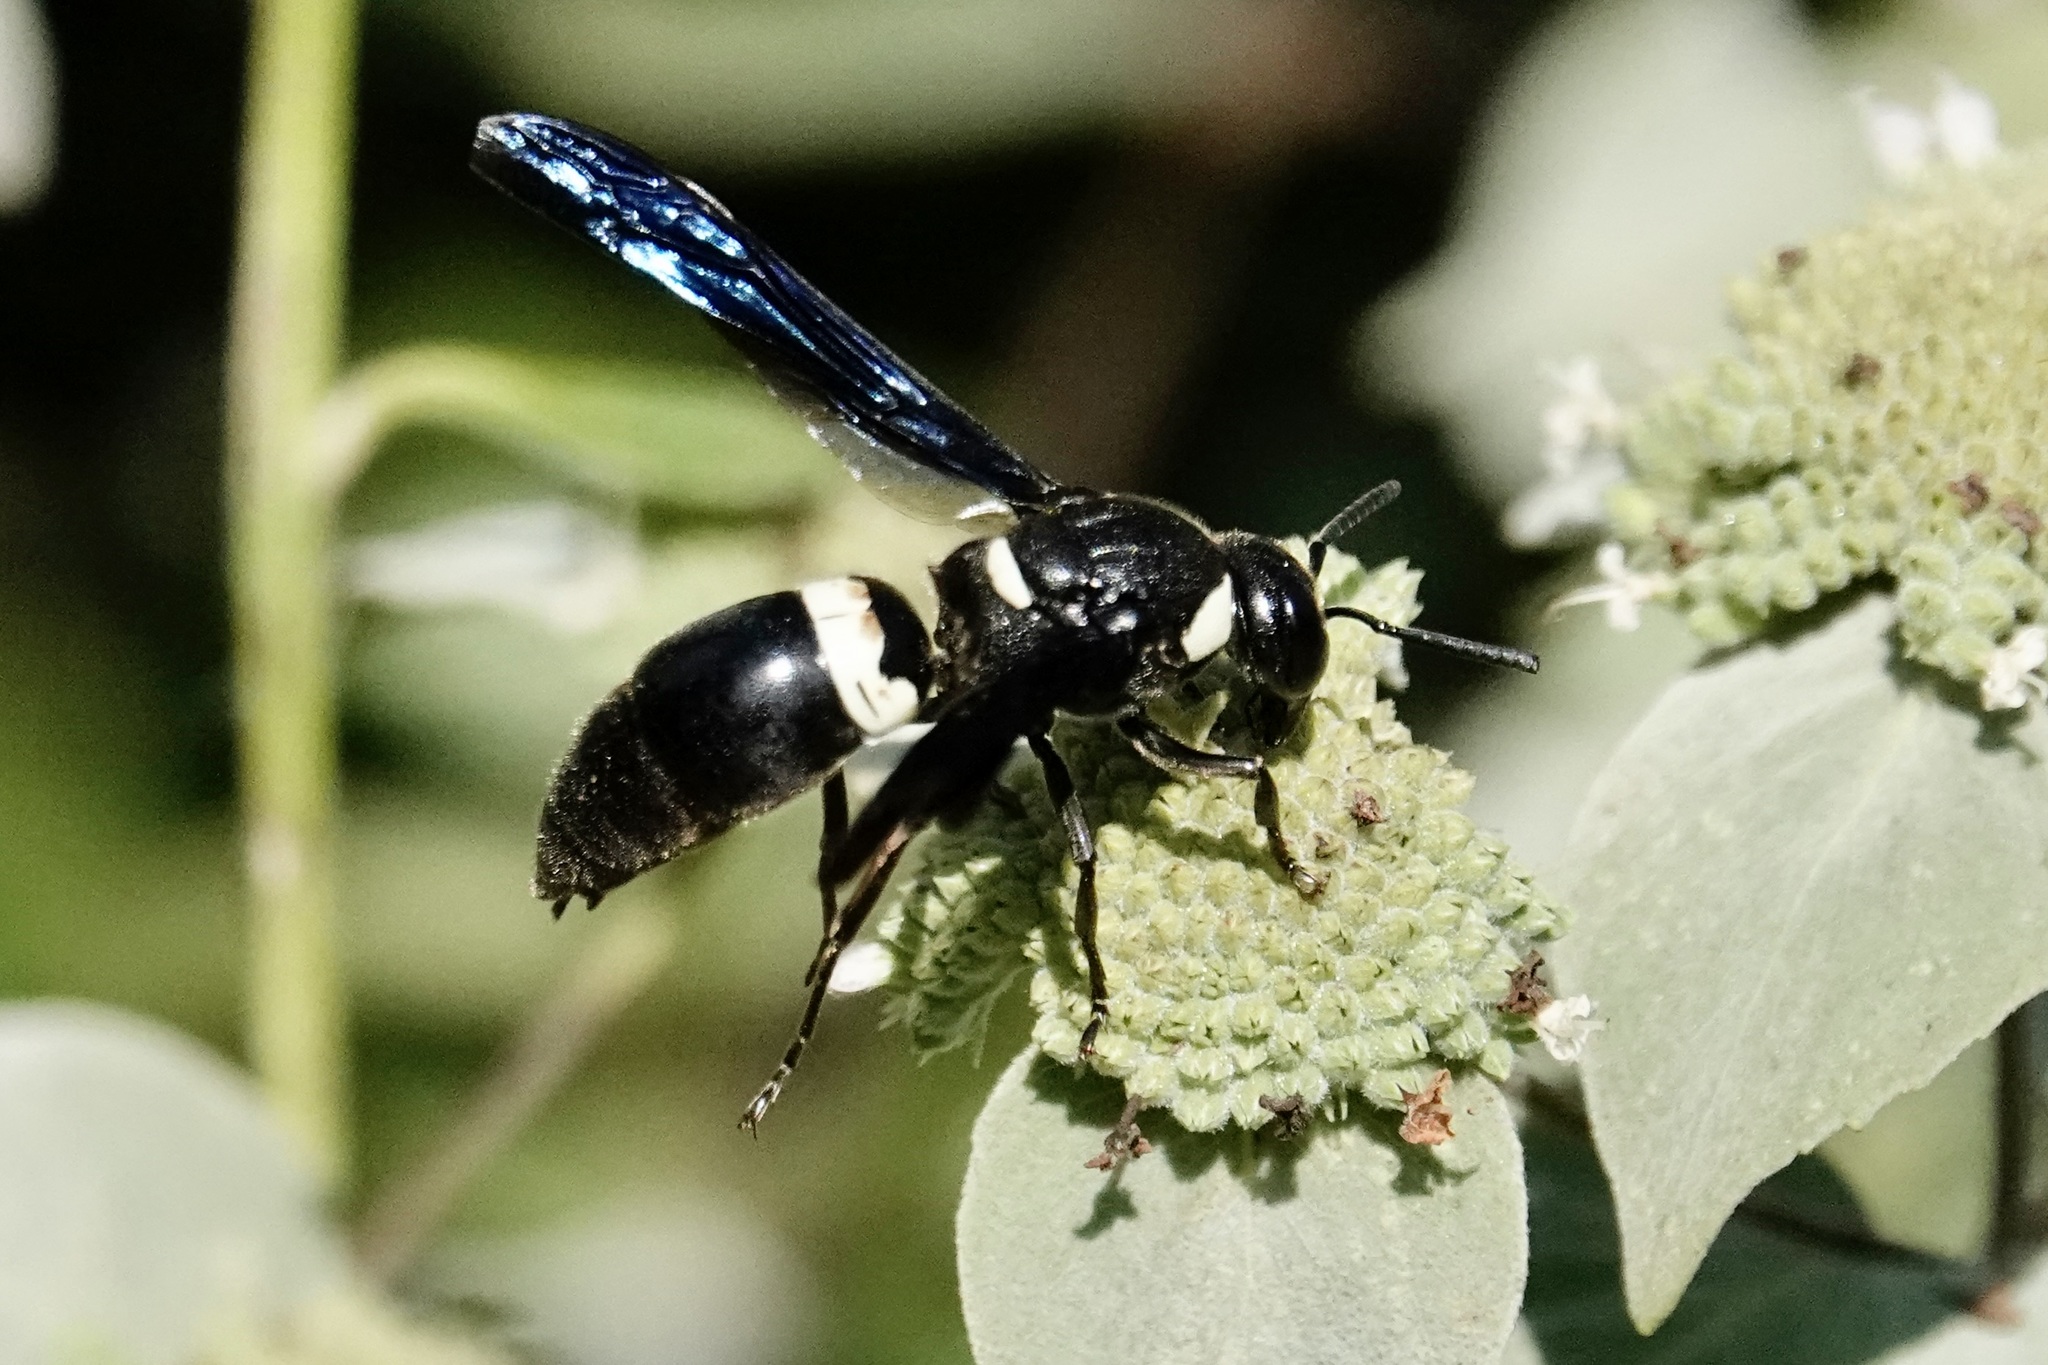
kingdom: Animalia
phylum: Arthropoda
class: Insecta
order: Hymenoptera
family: Eumenidae
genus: Monobia
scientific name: Monobia quadridens
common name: Four-toothed mason wasp
